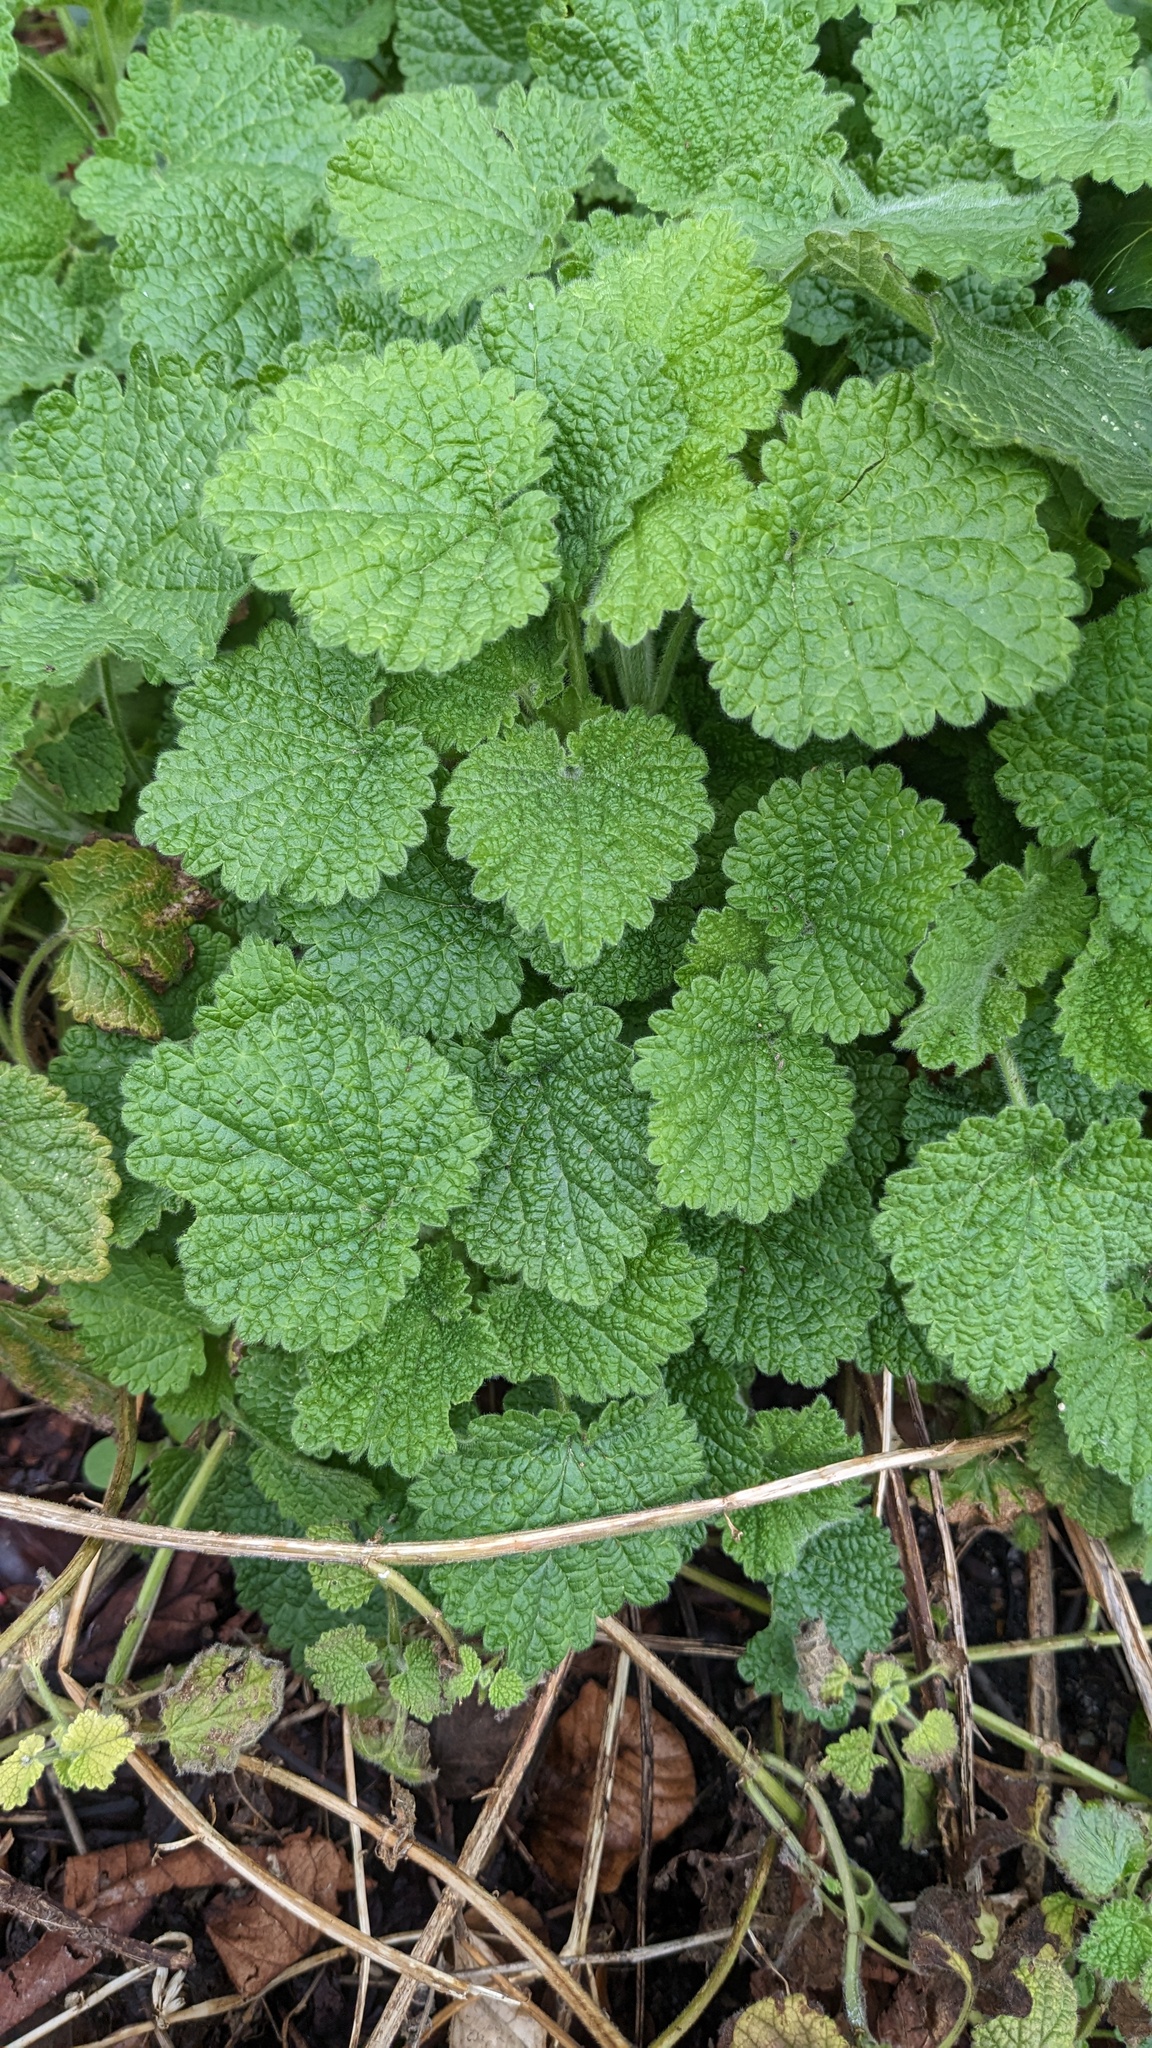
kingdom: Plantae
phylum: Tracheophyta
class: Magnoliopsida
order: Lamiales
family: Lamiaceae
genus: Ballota
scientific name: Ballota nigra
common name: Black horehound
